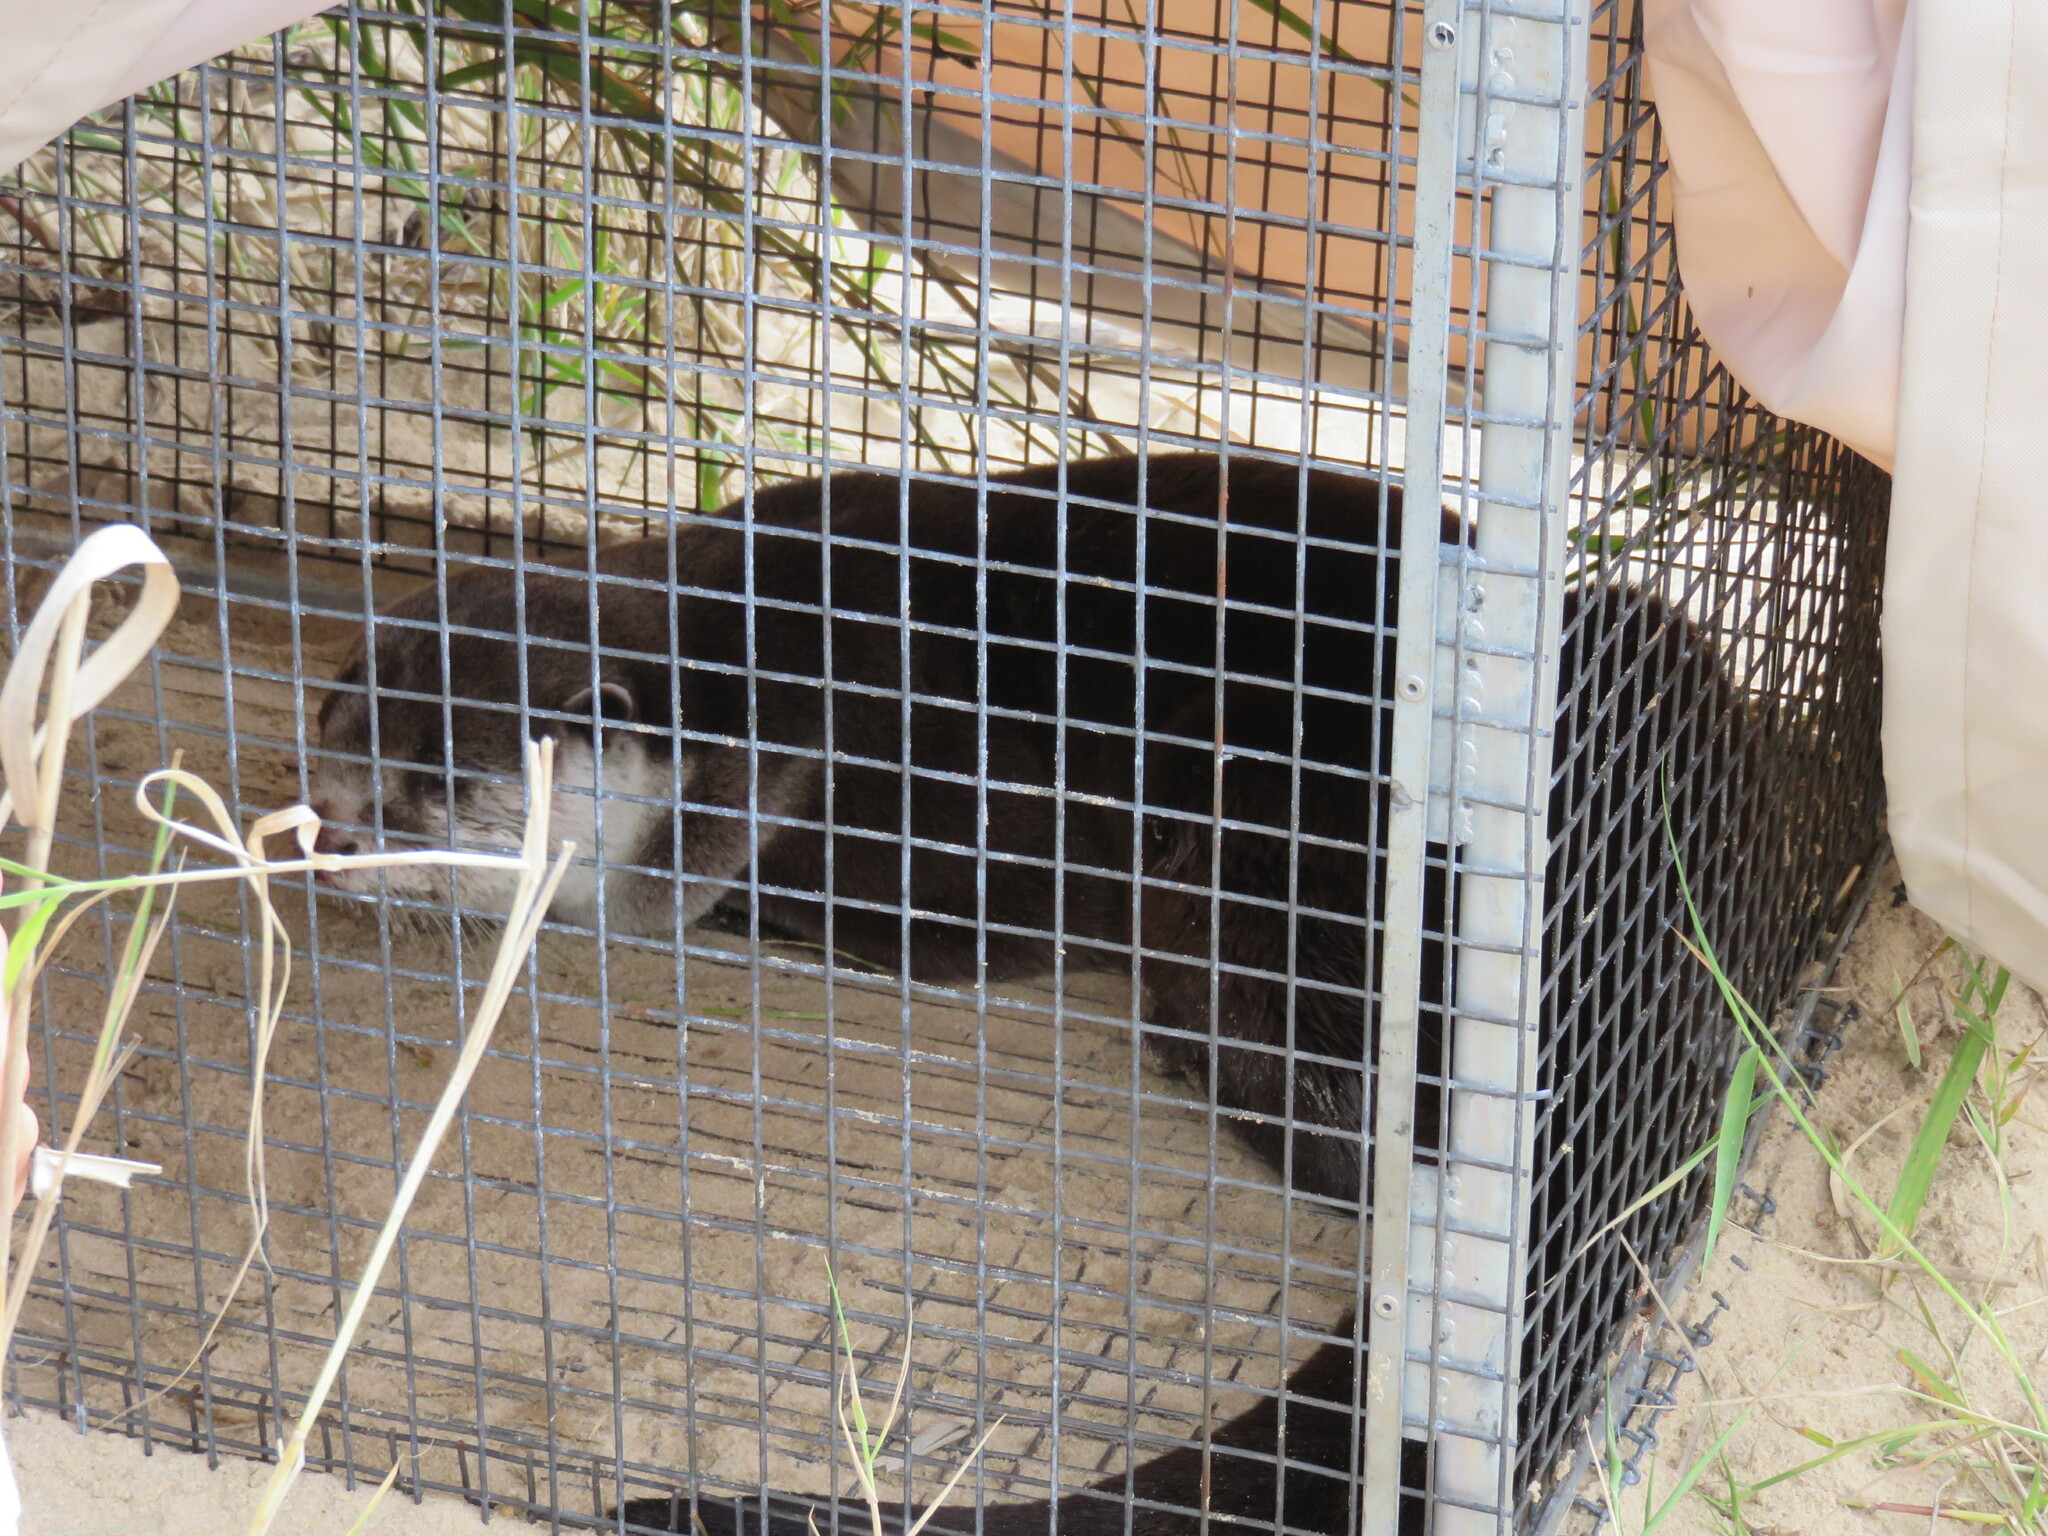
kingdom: Animalia
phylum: Chordata
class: Mammalia
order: Carnivora
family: Mustelidae
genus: Aonyx
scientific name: Aonyx capensis
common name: African clawless otter
